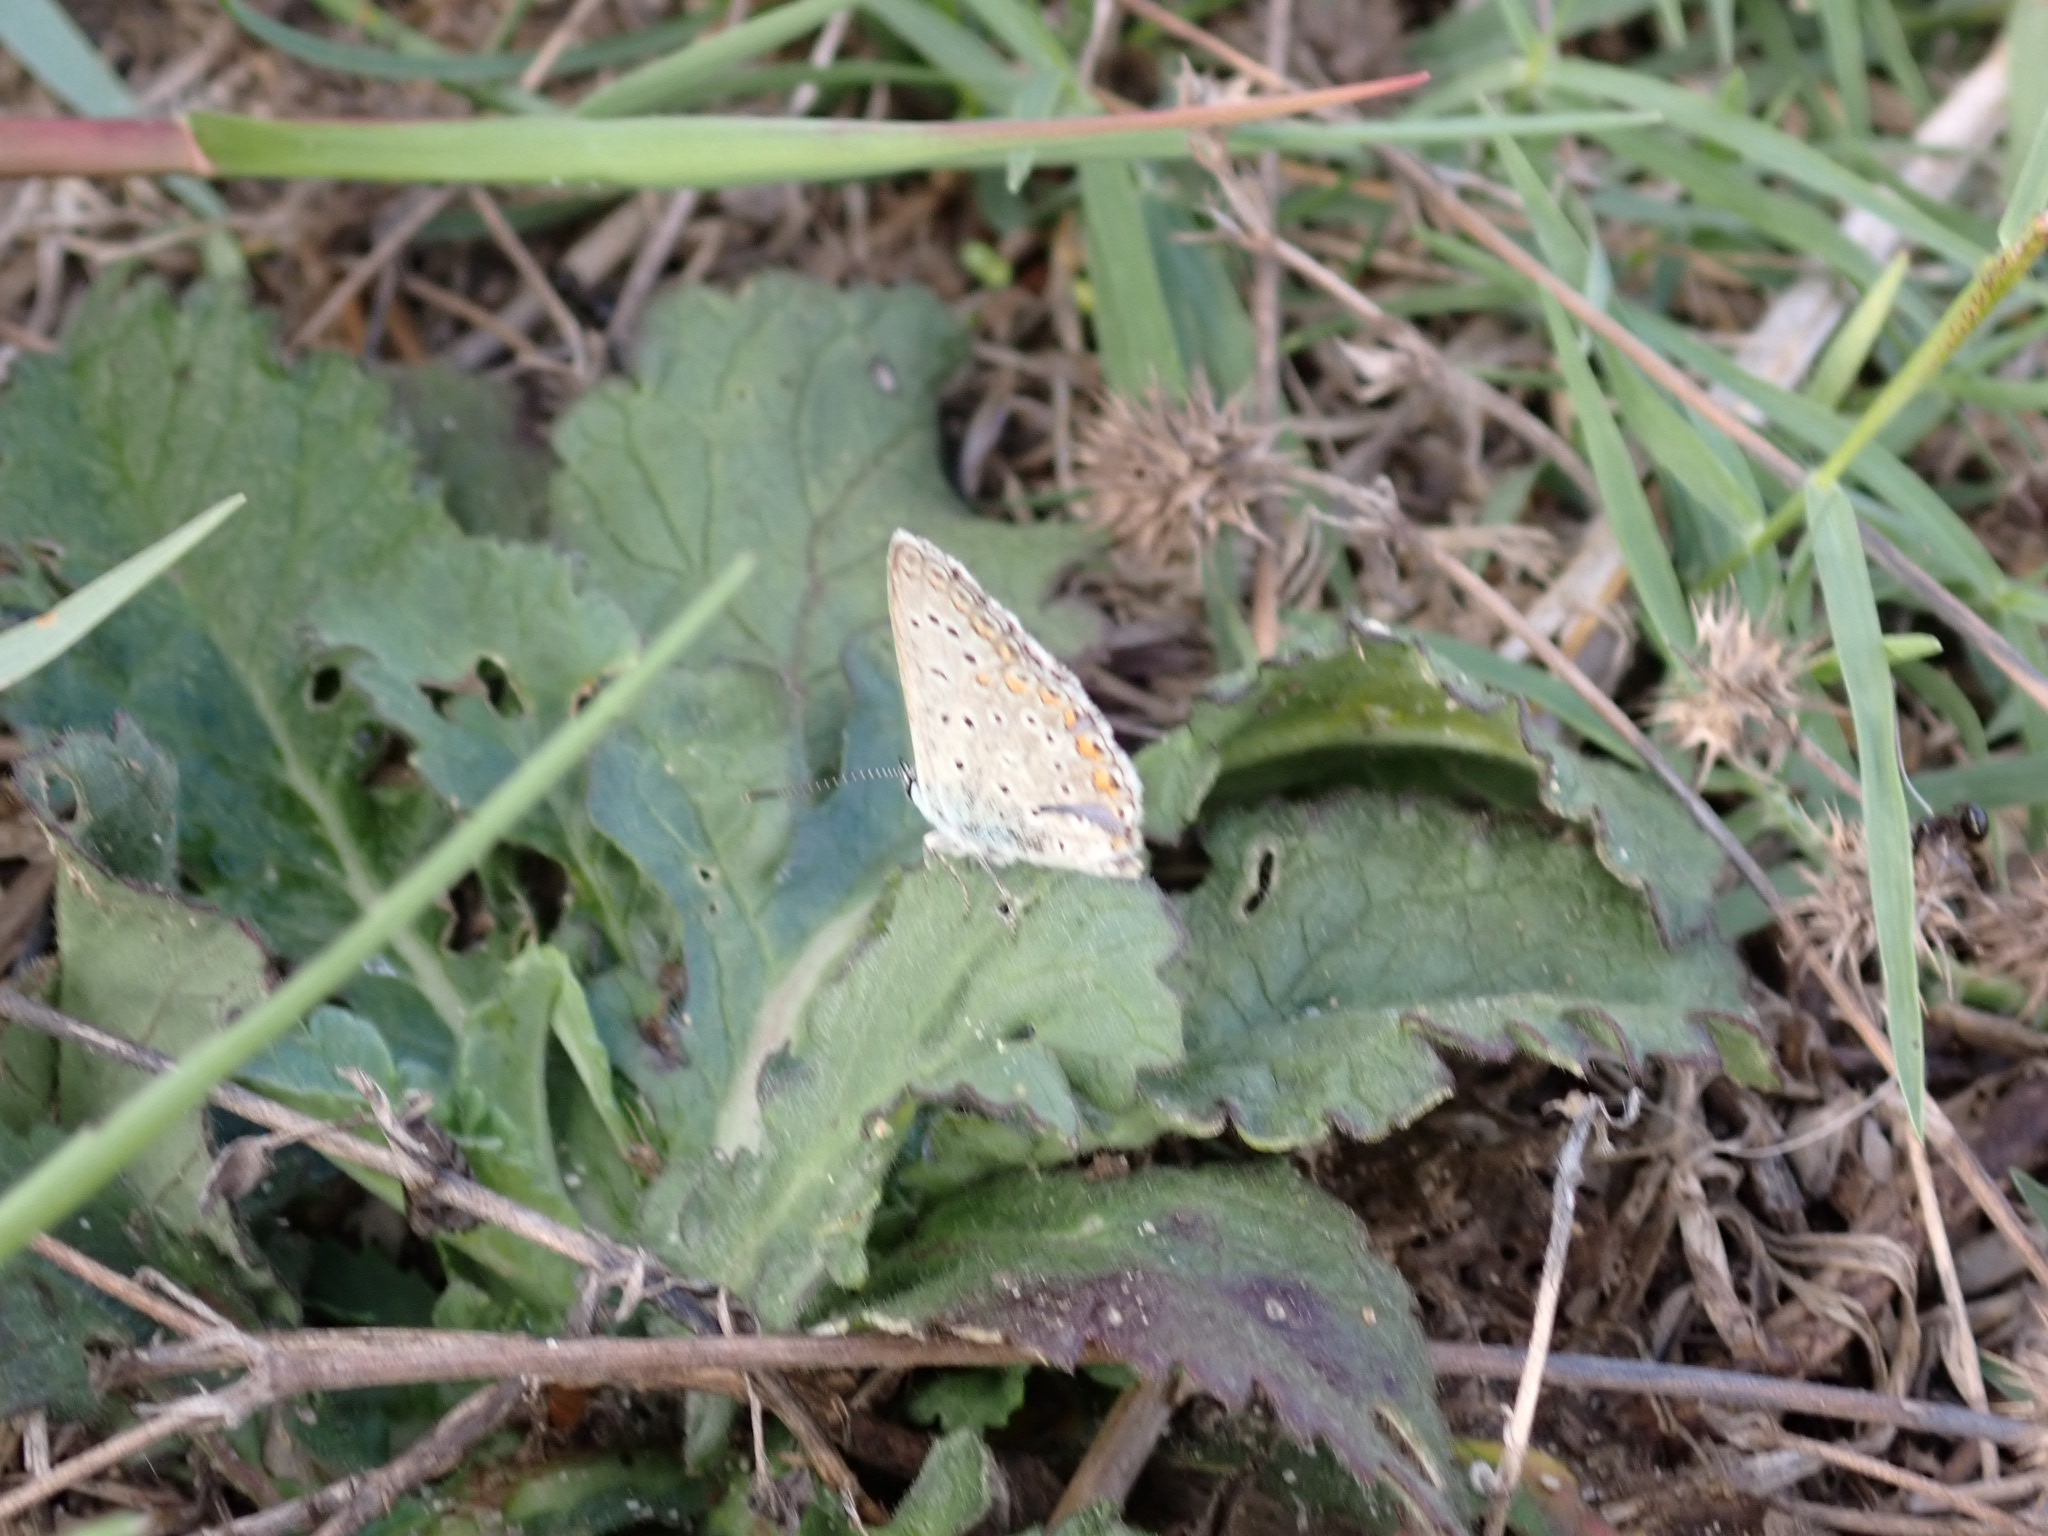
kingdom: Animalia
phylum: Arthropoda
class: Insecta
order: Lepidoptera
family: Lycaenidae
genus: Polyommatus
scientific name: Polyommatus icarus
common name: Common blue
